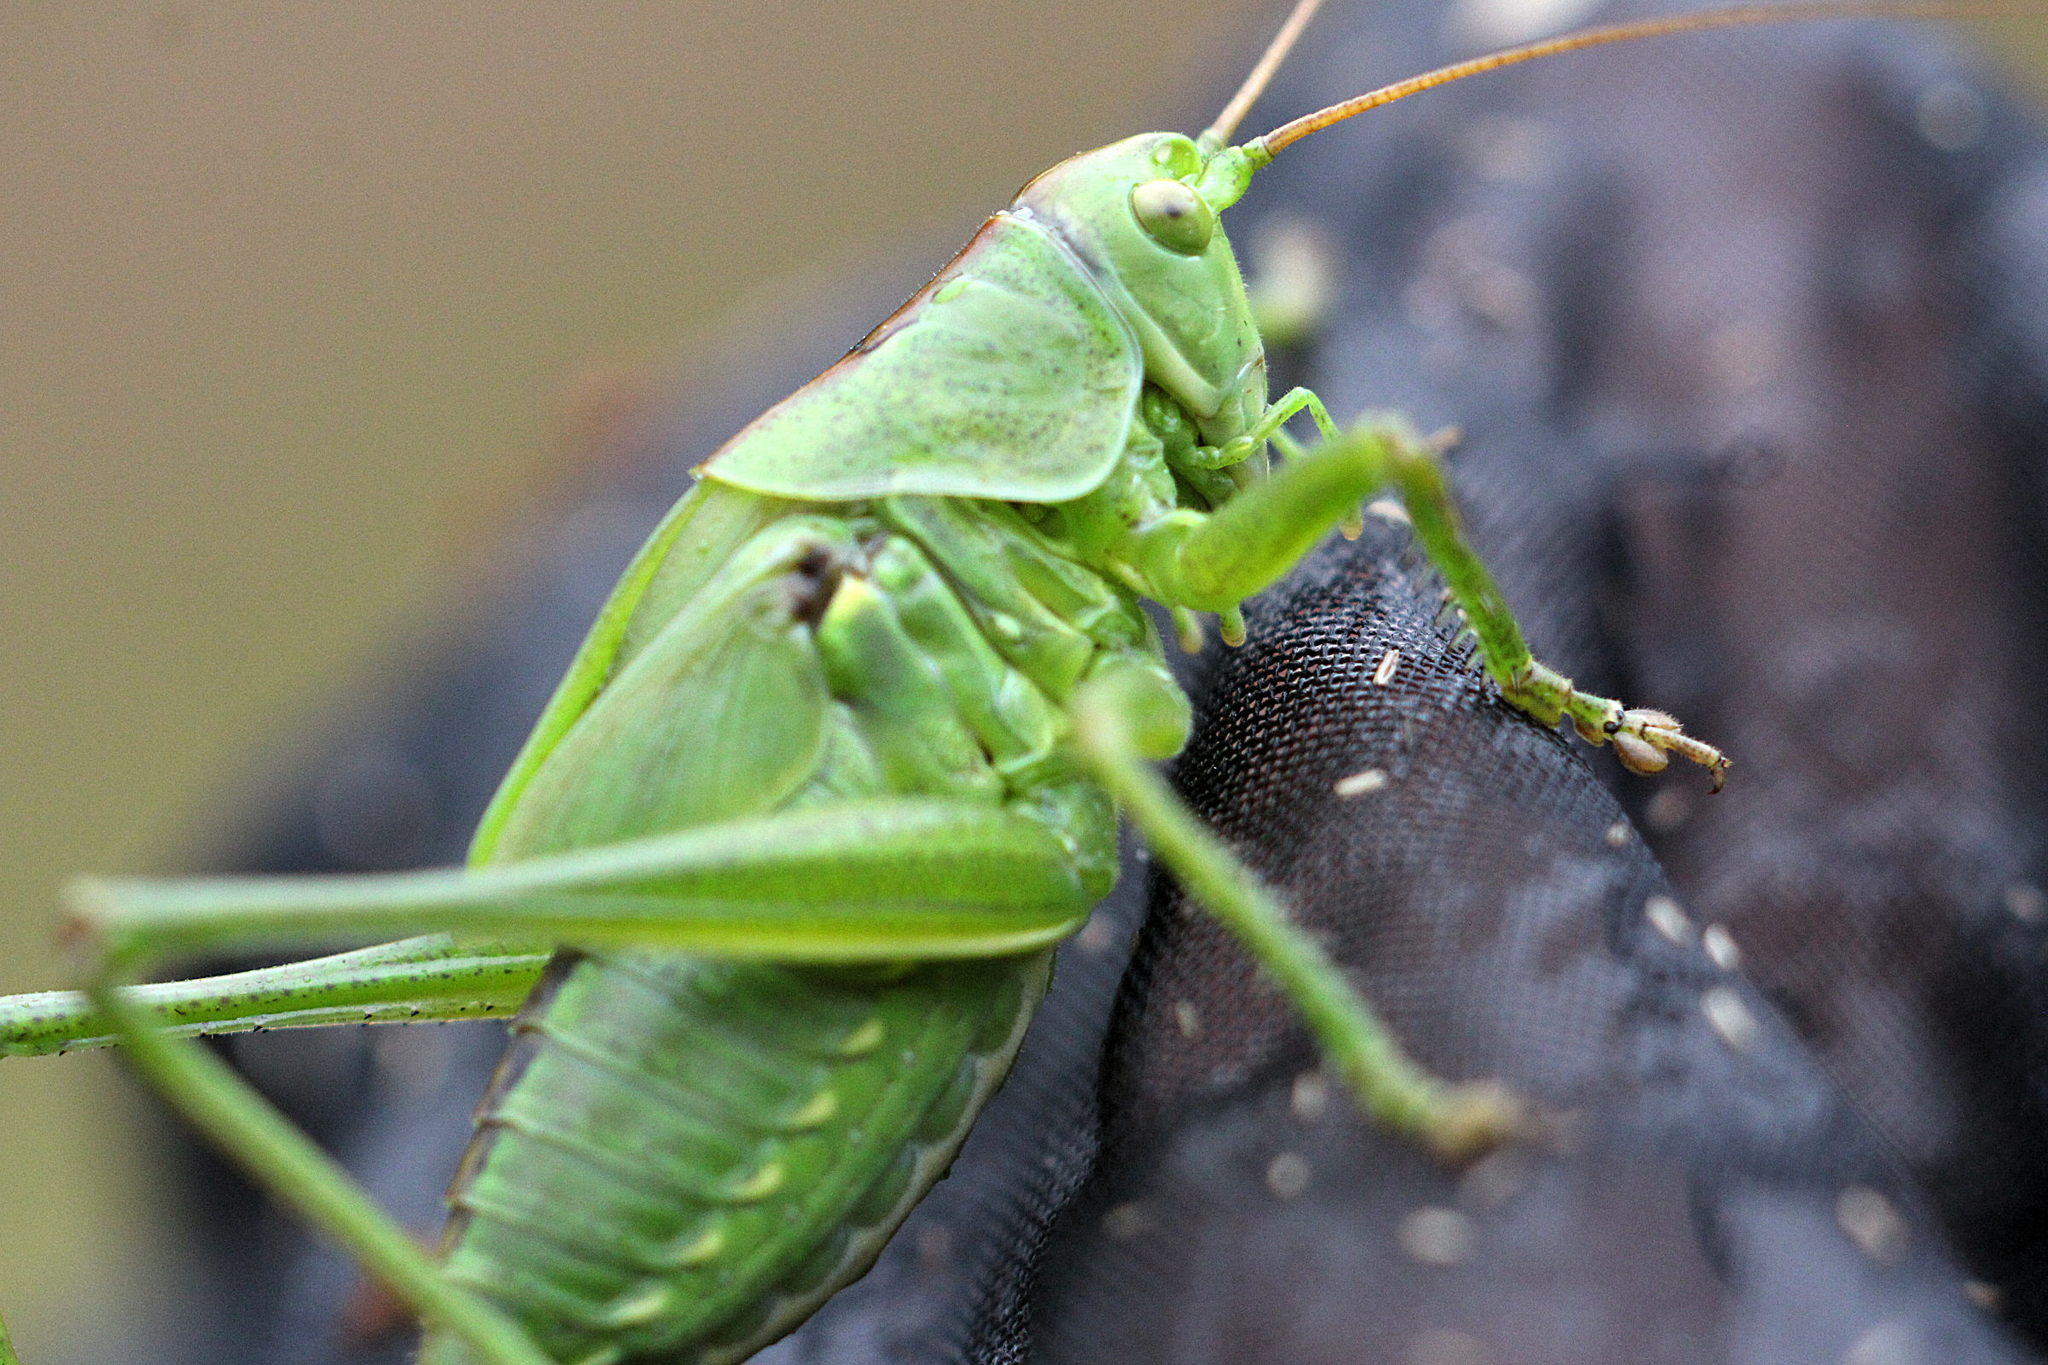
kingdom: Animalia
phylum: Arthropoda
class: Insecta
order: Orthoptera
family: Tettigoniidae
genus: Tettigonia
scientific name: Tettigonia viridissima
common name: Great green bush-cricket
